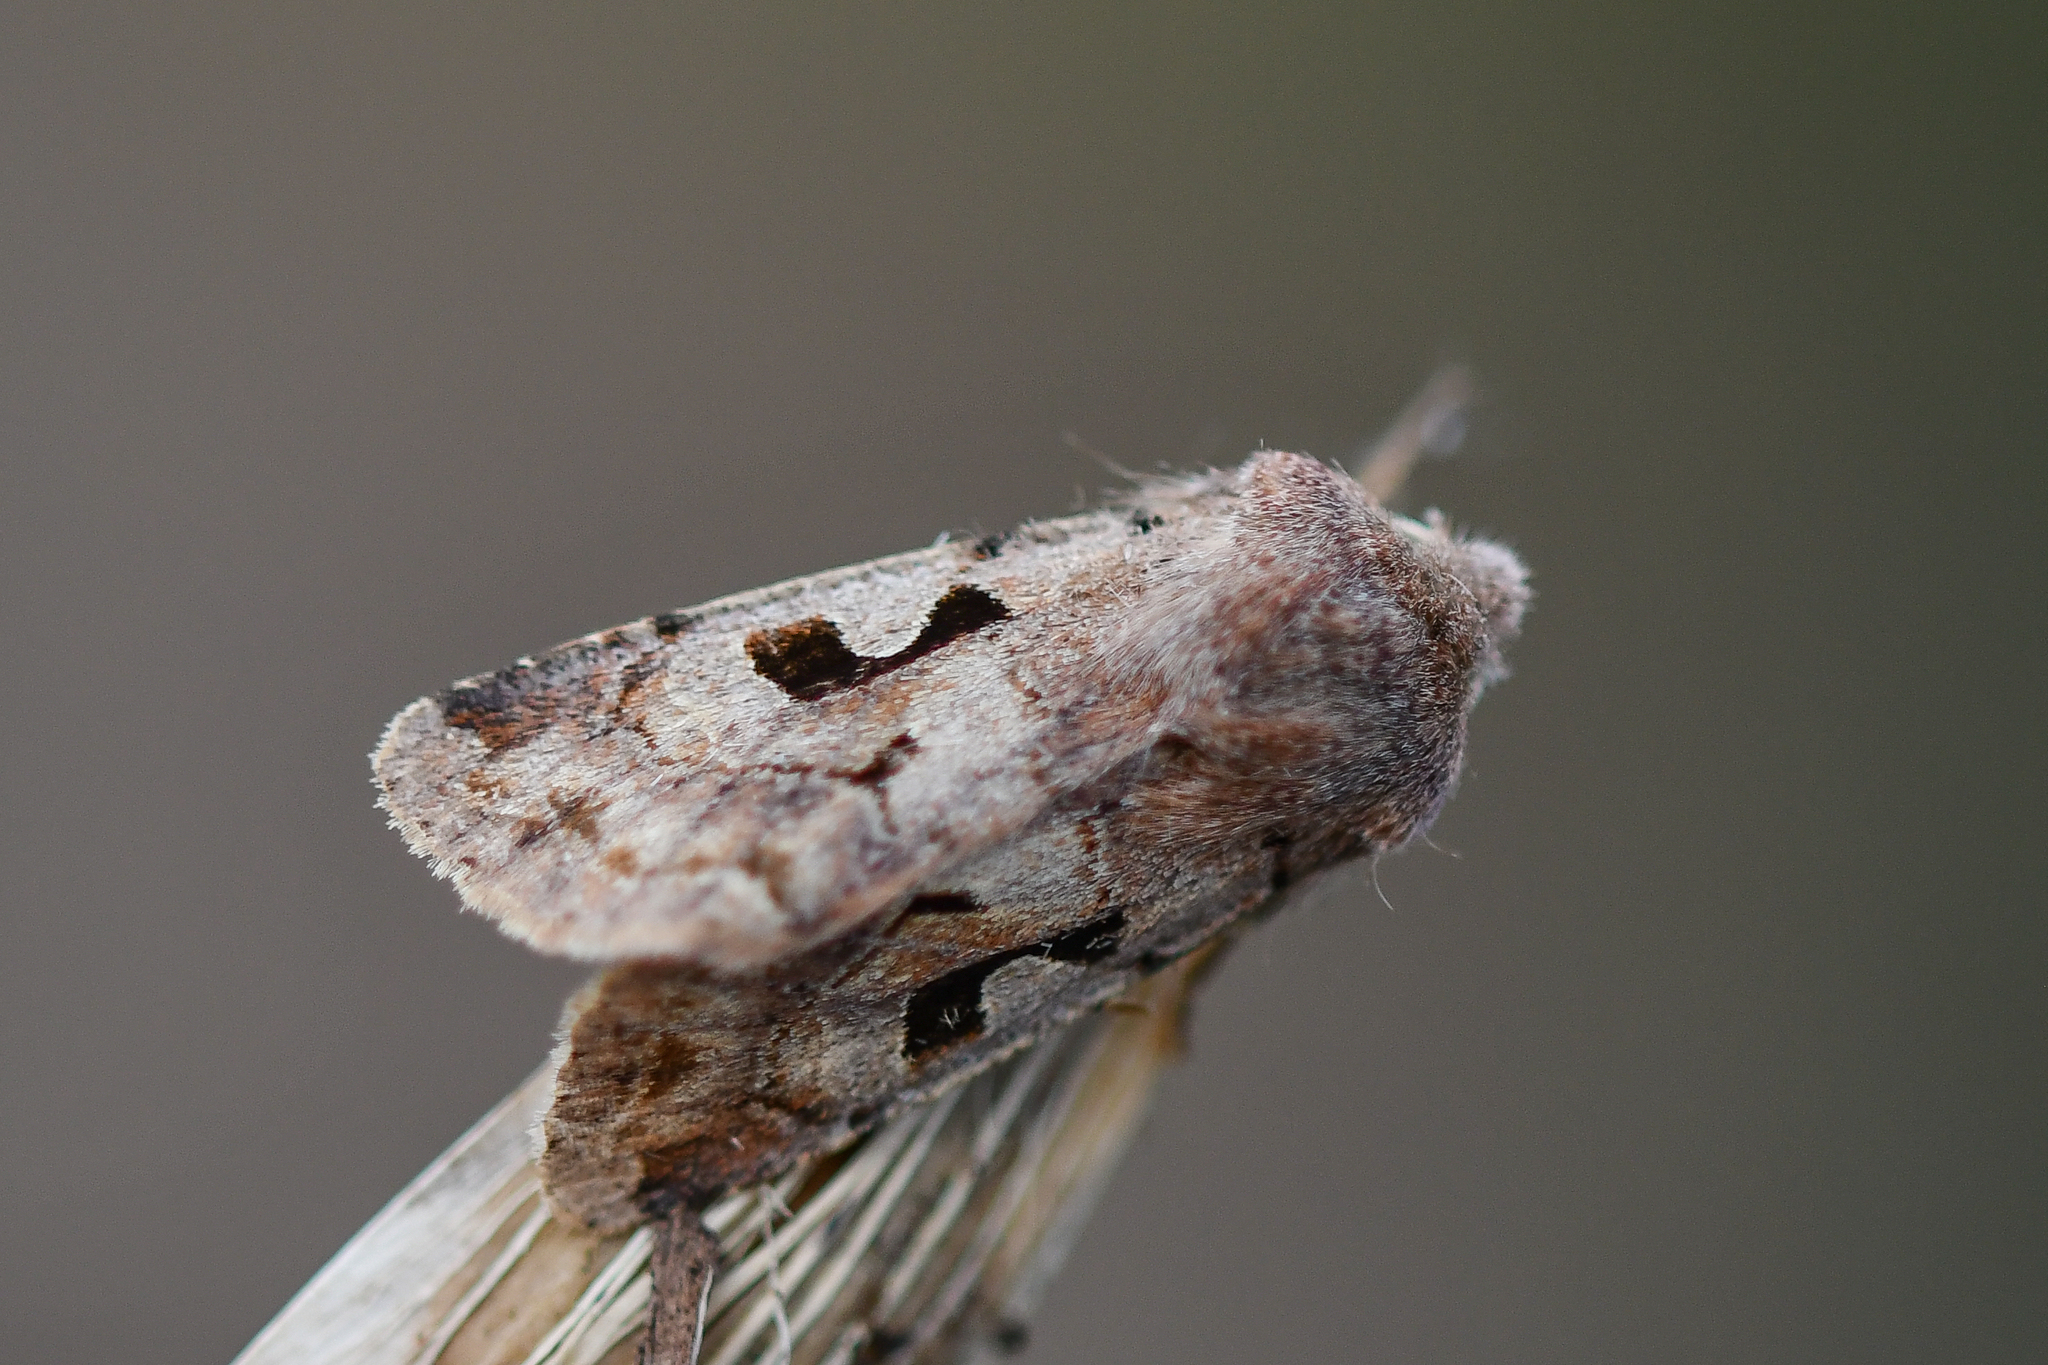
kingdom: Animalia
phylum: Arthropoda
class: Insecta
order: Lepidoptera
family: Noctuidae
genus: Orthosia
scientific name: Orthosia gothica
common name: Hebrew character
